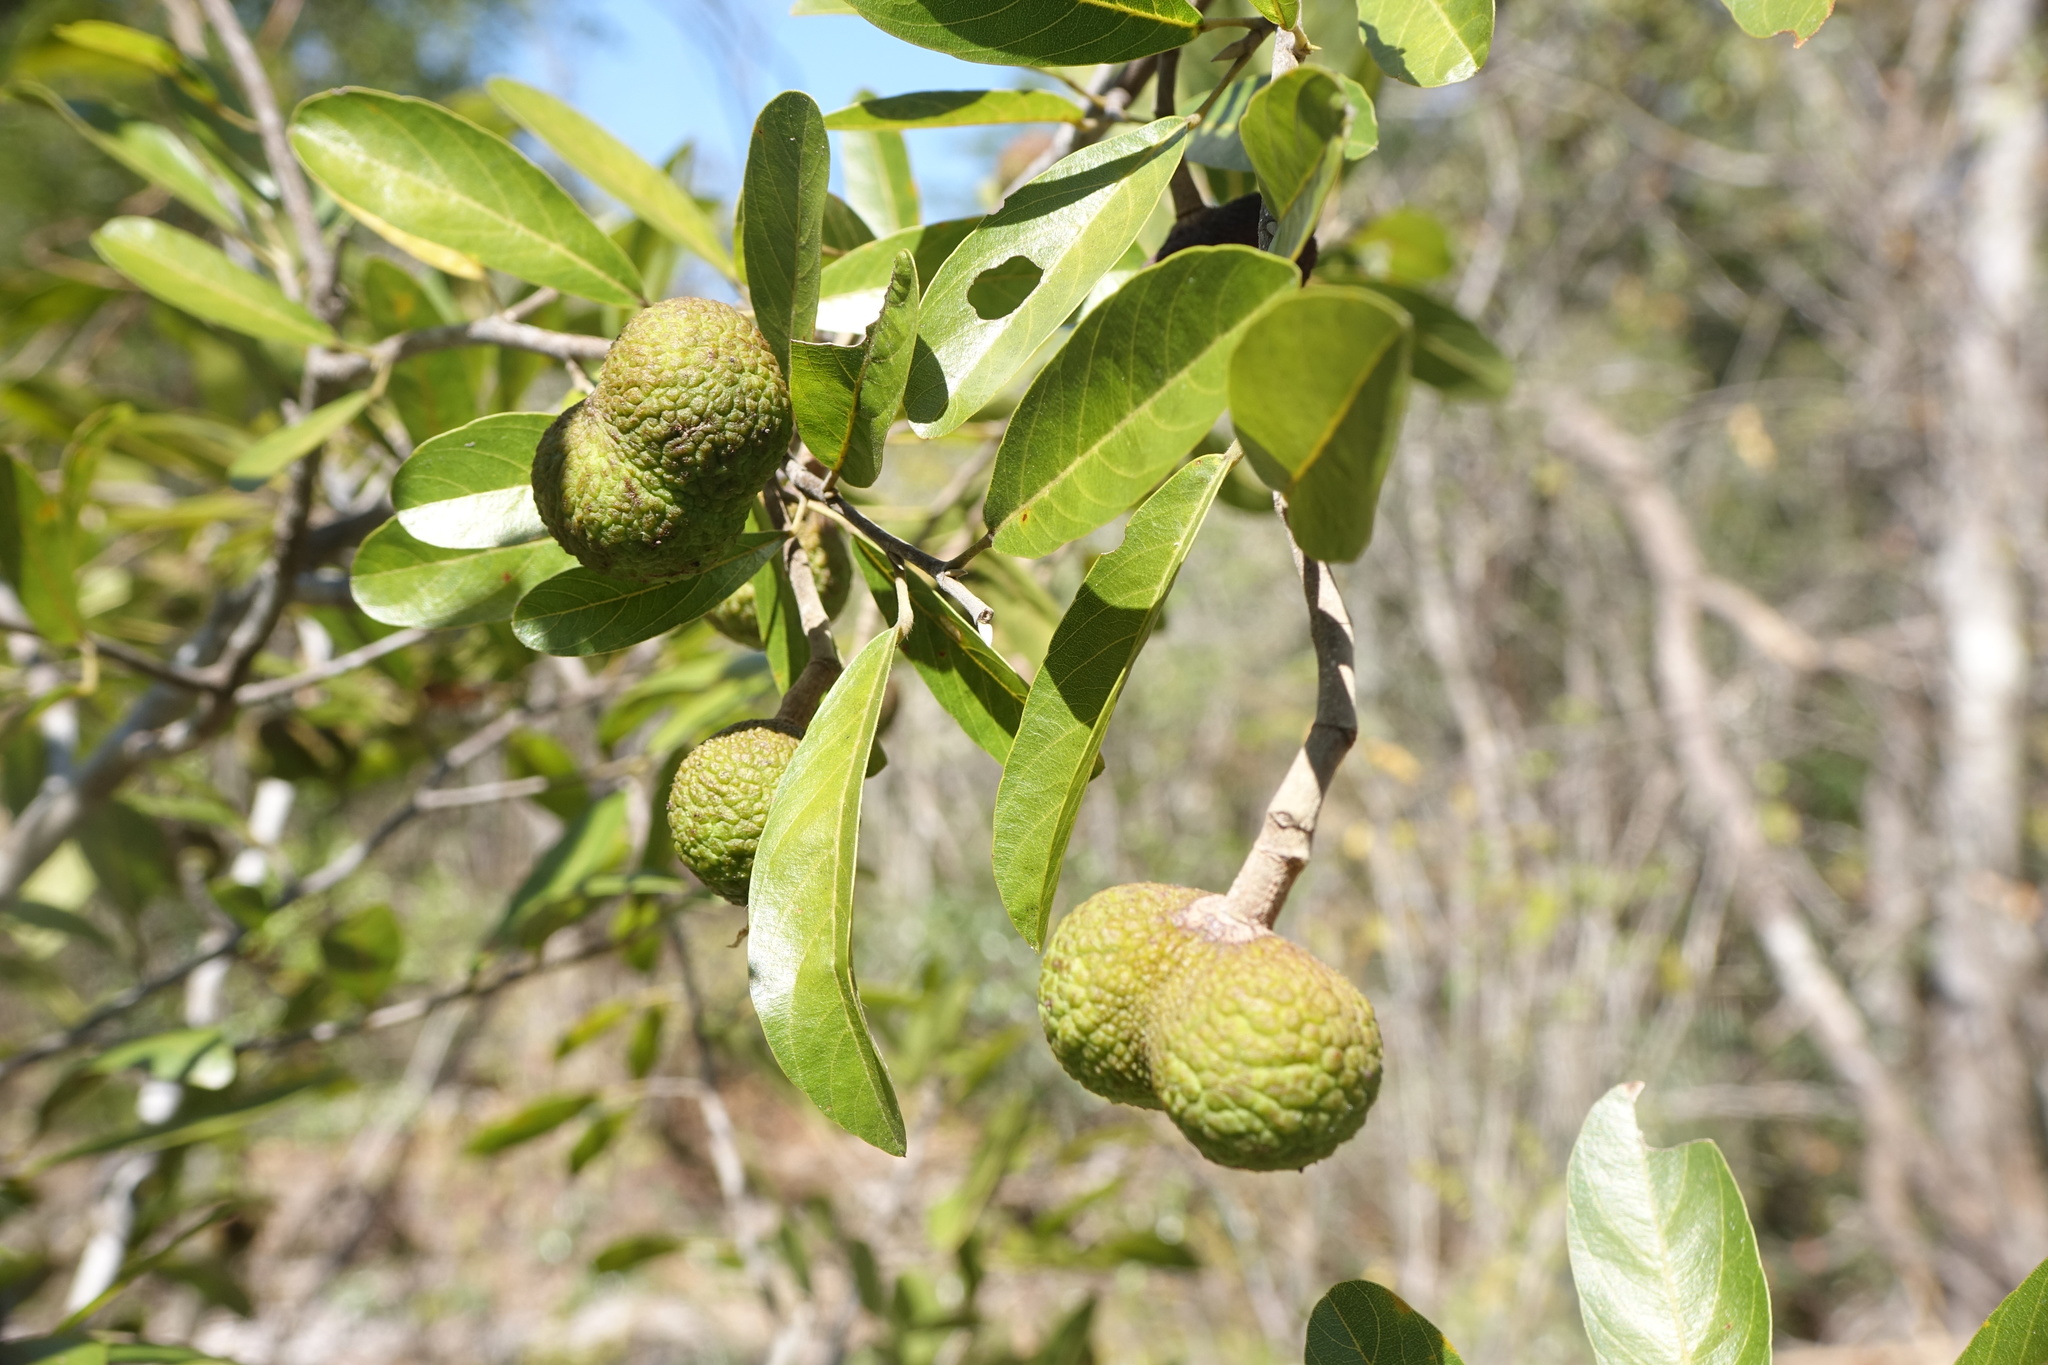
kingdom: Plantae
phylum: Tracheophyta
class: Magnoliopsida
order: Malvales
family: Sphaerosepalaceae
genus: Rhopalocarpus
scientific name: Rhopalocarpus similis
